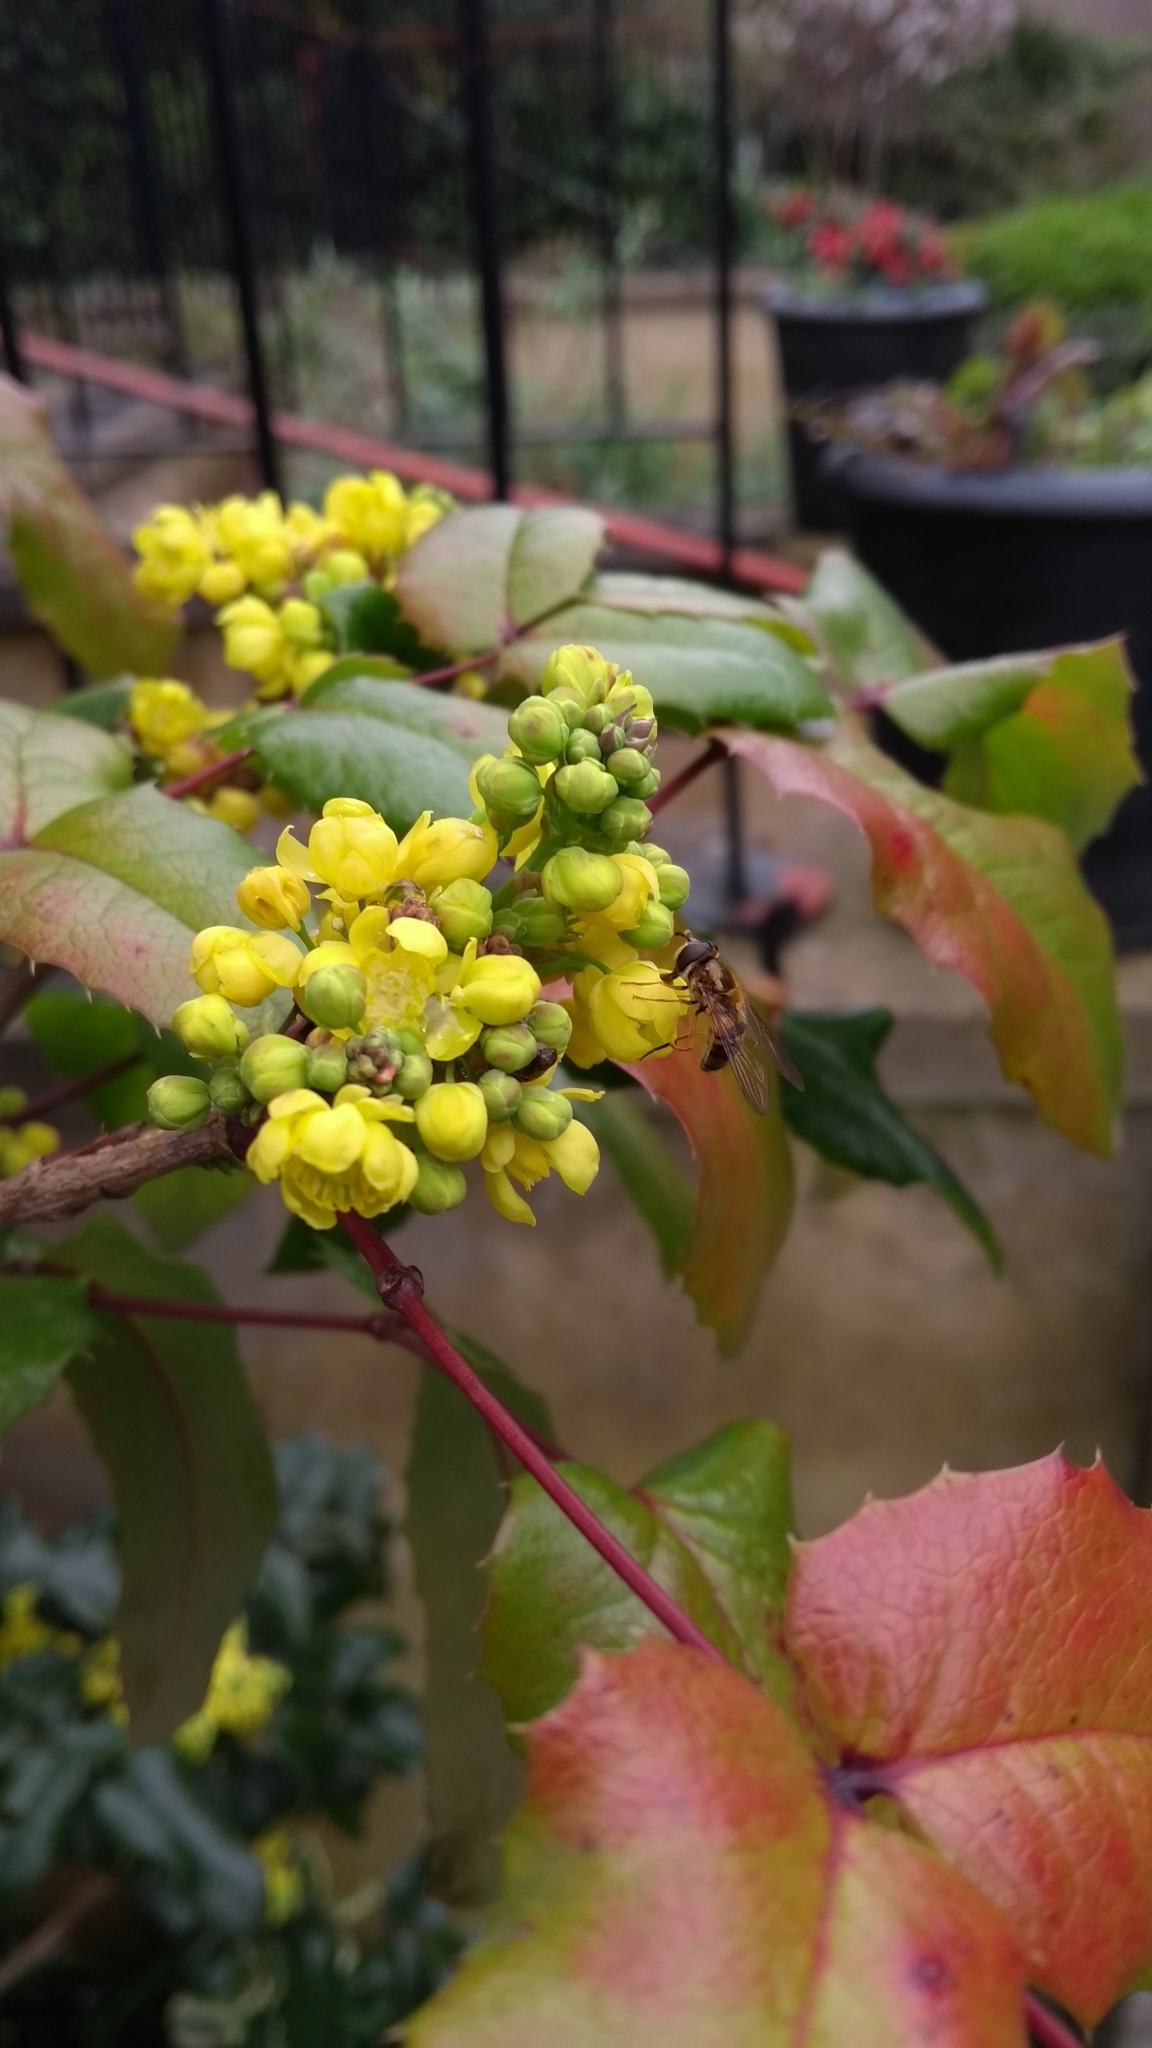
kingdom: Animalia
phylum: Arthropoda
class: Insecta
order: Diptera
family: Syrphidae
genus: Epistrophe
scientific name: Epistrophe eligans
